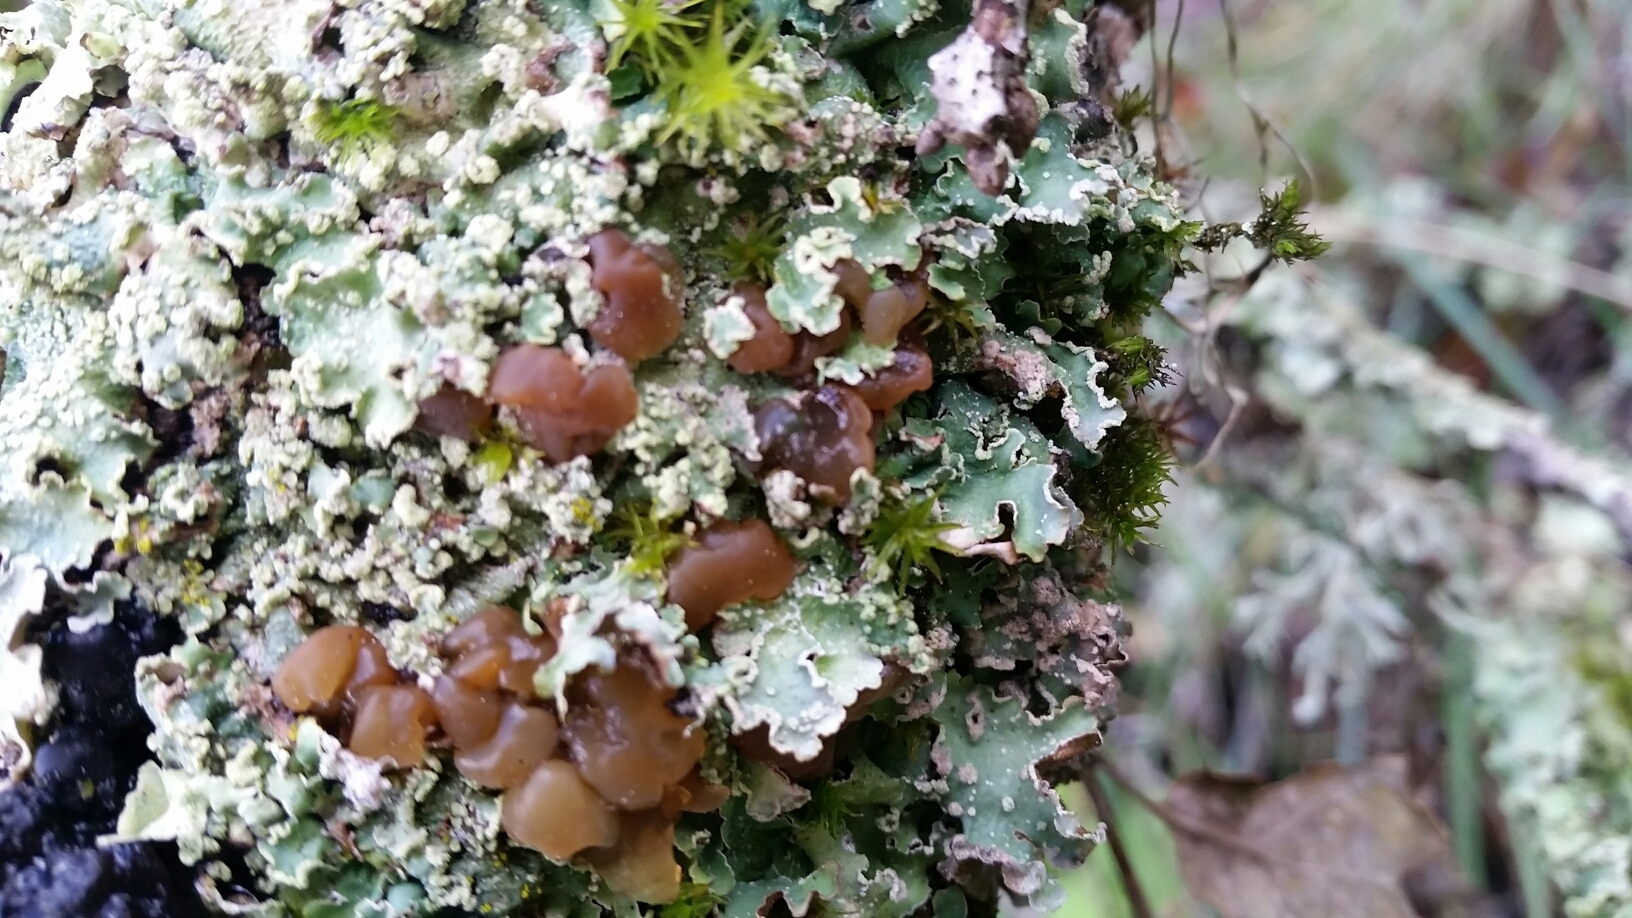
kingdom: Fungi
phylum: Basidiomycota
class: Agaricomycetes
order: Auriculariales
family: Hyaloriaceae
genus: Myxarium
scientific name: Myxarium nucleatum
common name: Crystal brain fungus
